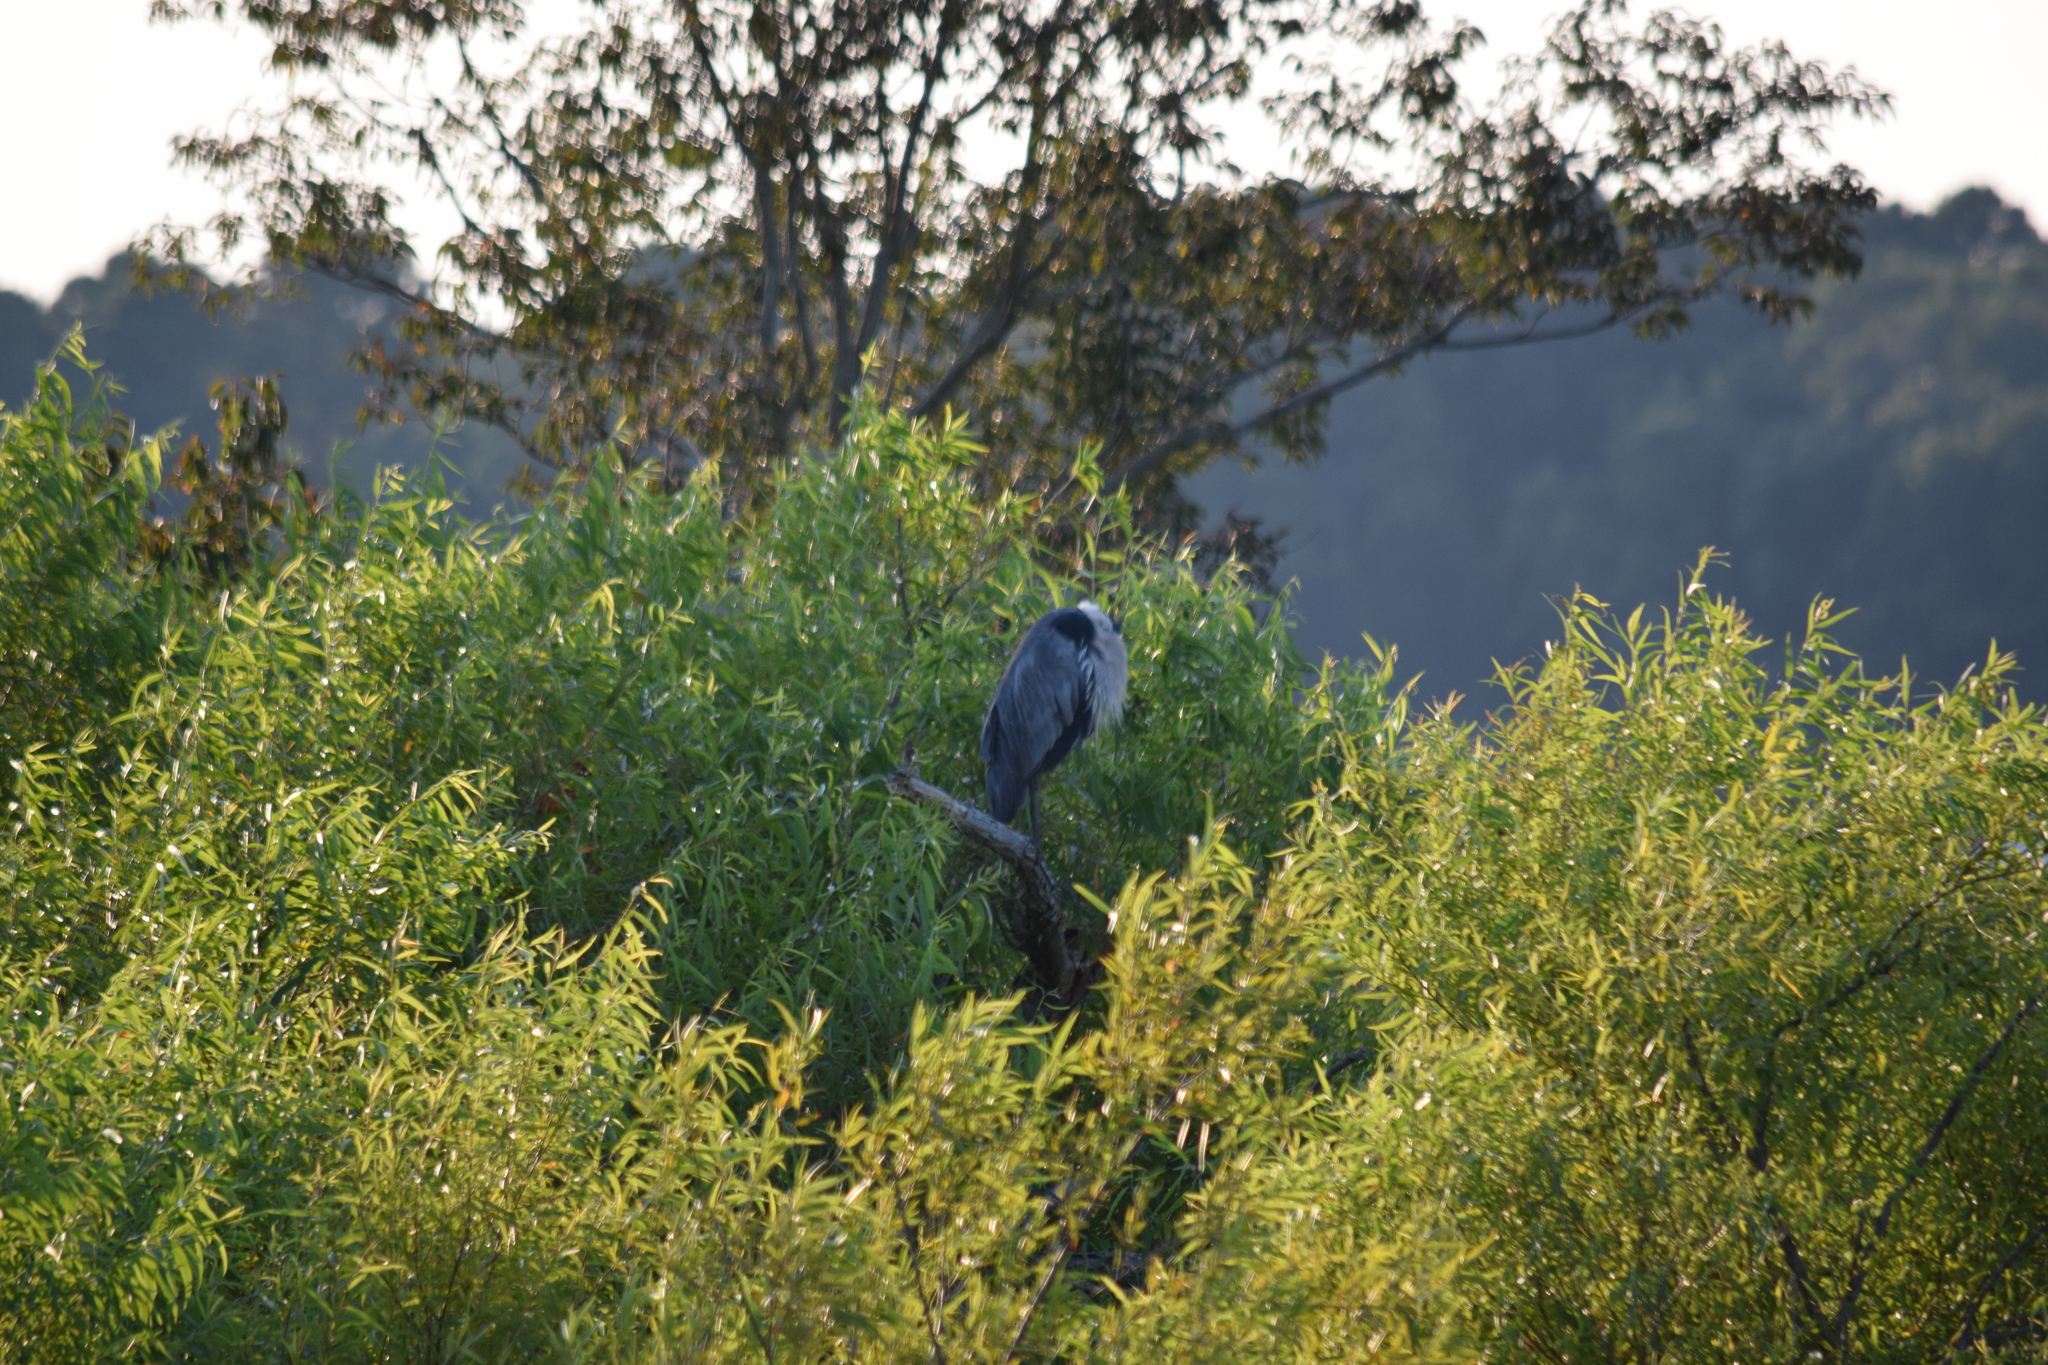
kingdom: Animalia
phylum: Chordata
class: Aves
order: Pelecaniformes
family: Ardeidae
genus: Ardea
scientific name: Ardea herodias
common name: Great blue heron
